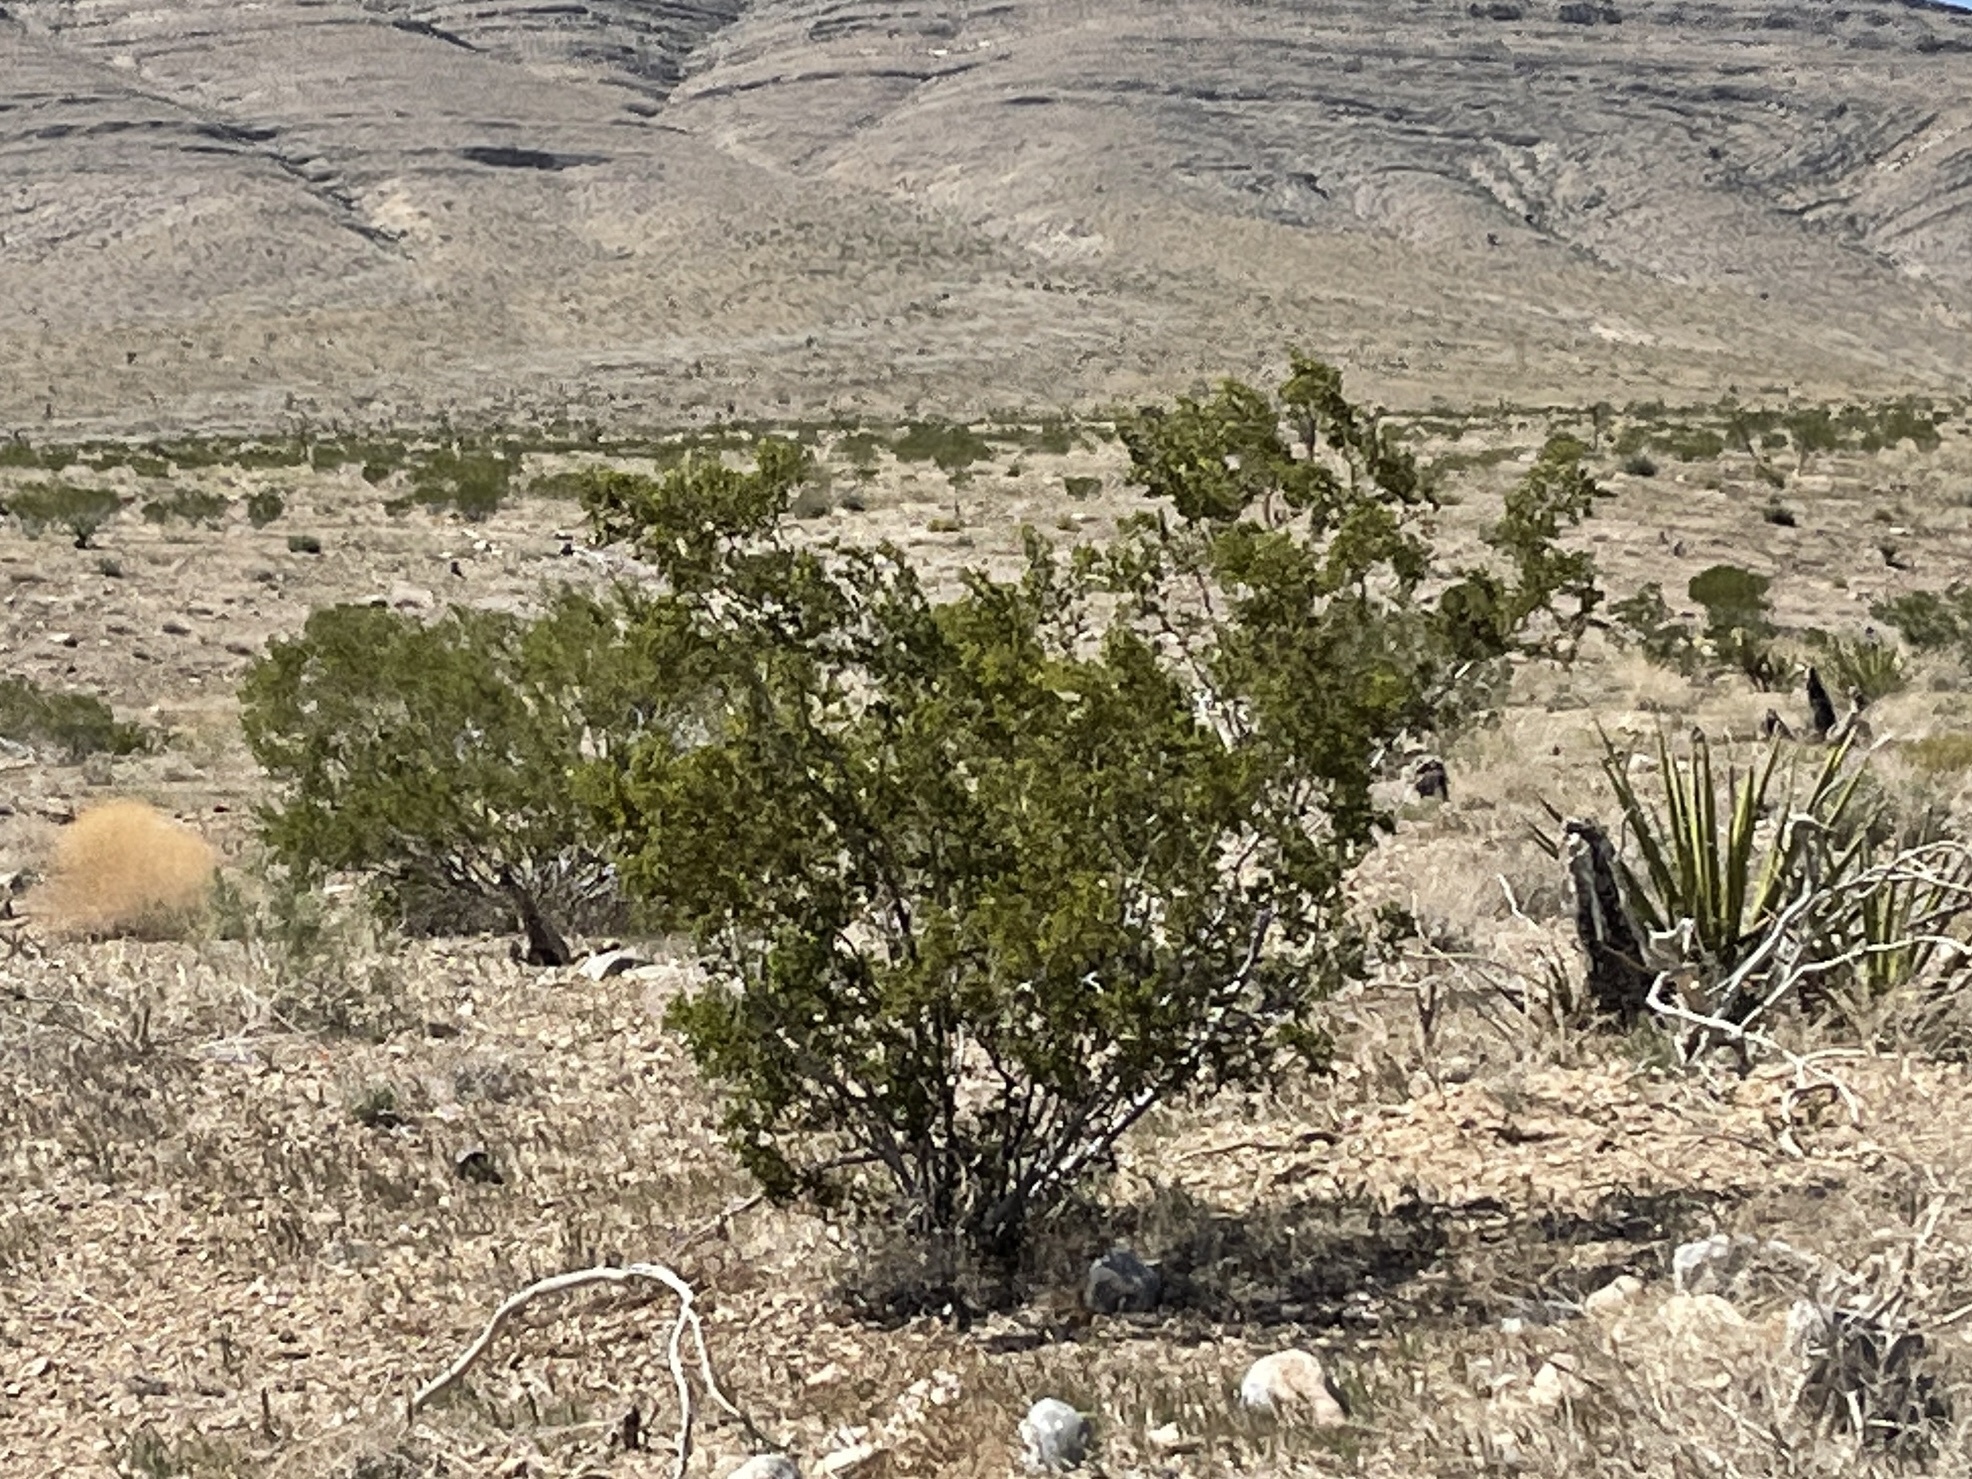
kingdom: Plantae
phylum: Tracheophyta
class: Magnoliopsida
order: Zygophyllales
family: Zygophyllaceae
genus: Larrea
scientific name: Larrea tridentata
